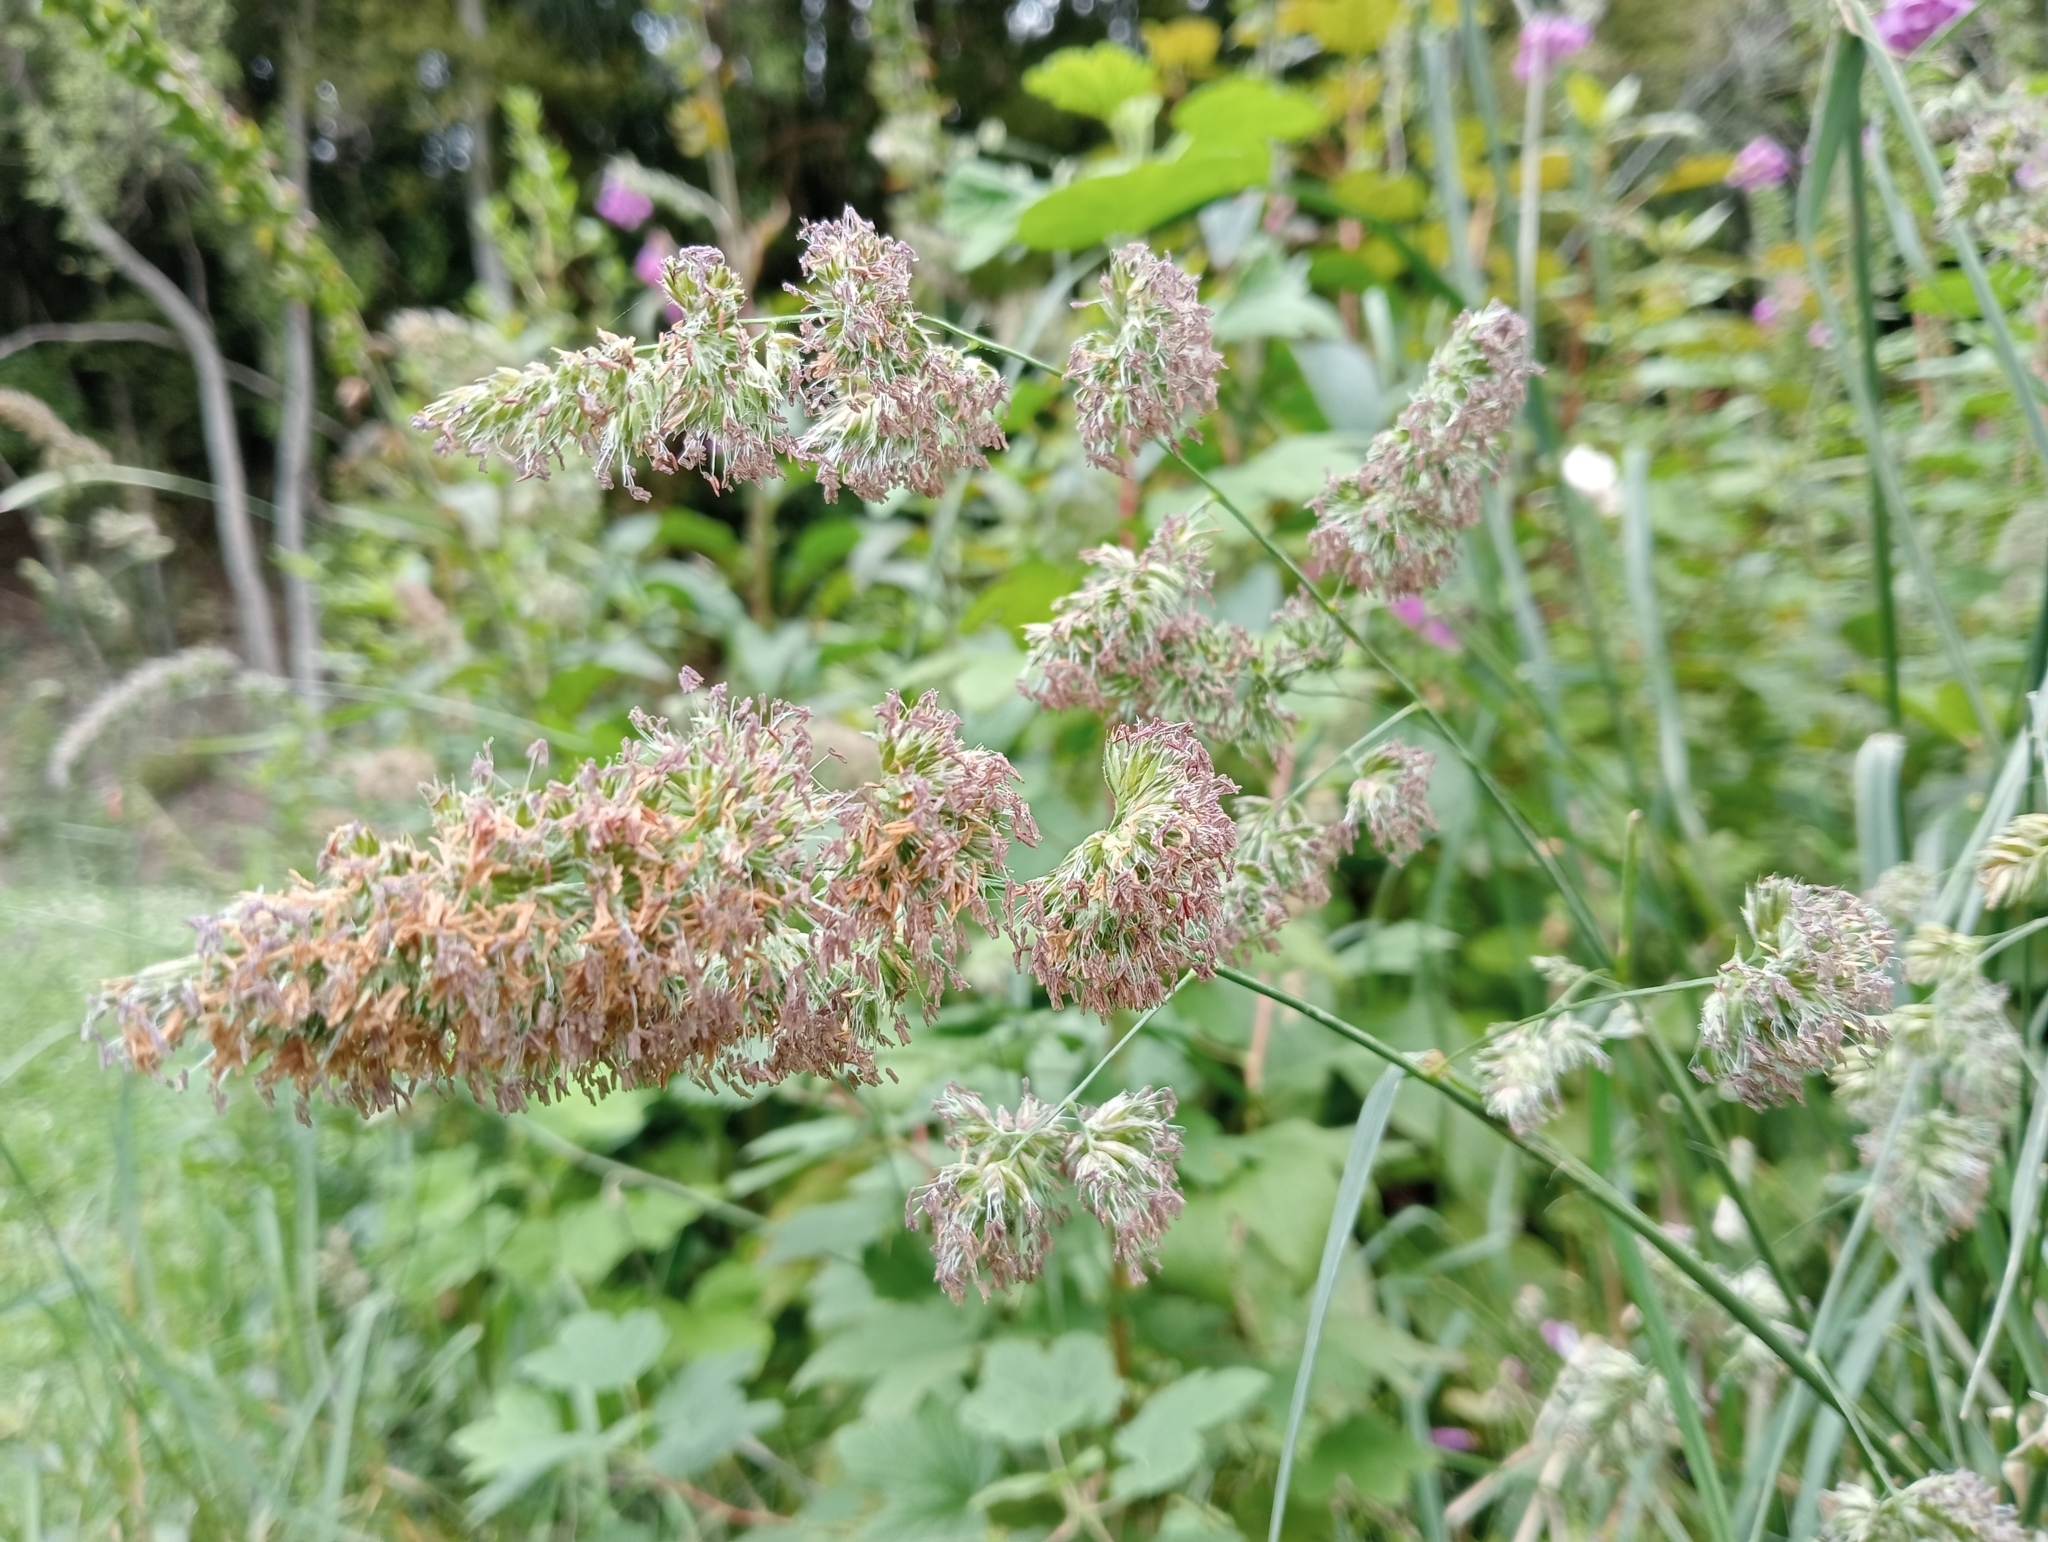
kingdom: Plantae
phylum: Tracheophyta
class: Liliopsida
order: Poales
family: Poaceae
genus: Dactylis
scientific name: Dactylis glomerata
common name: Orchardgrass
